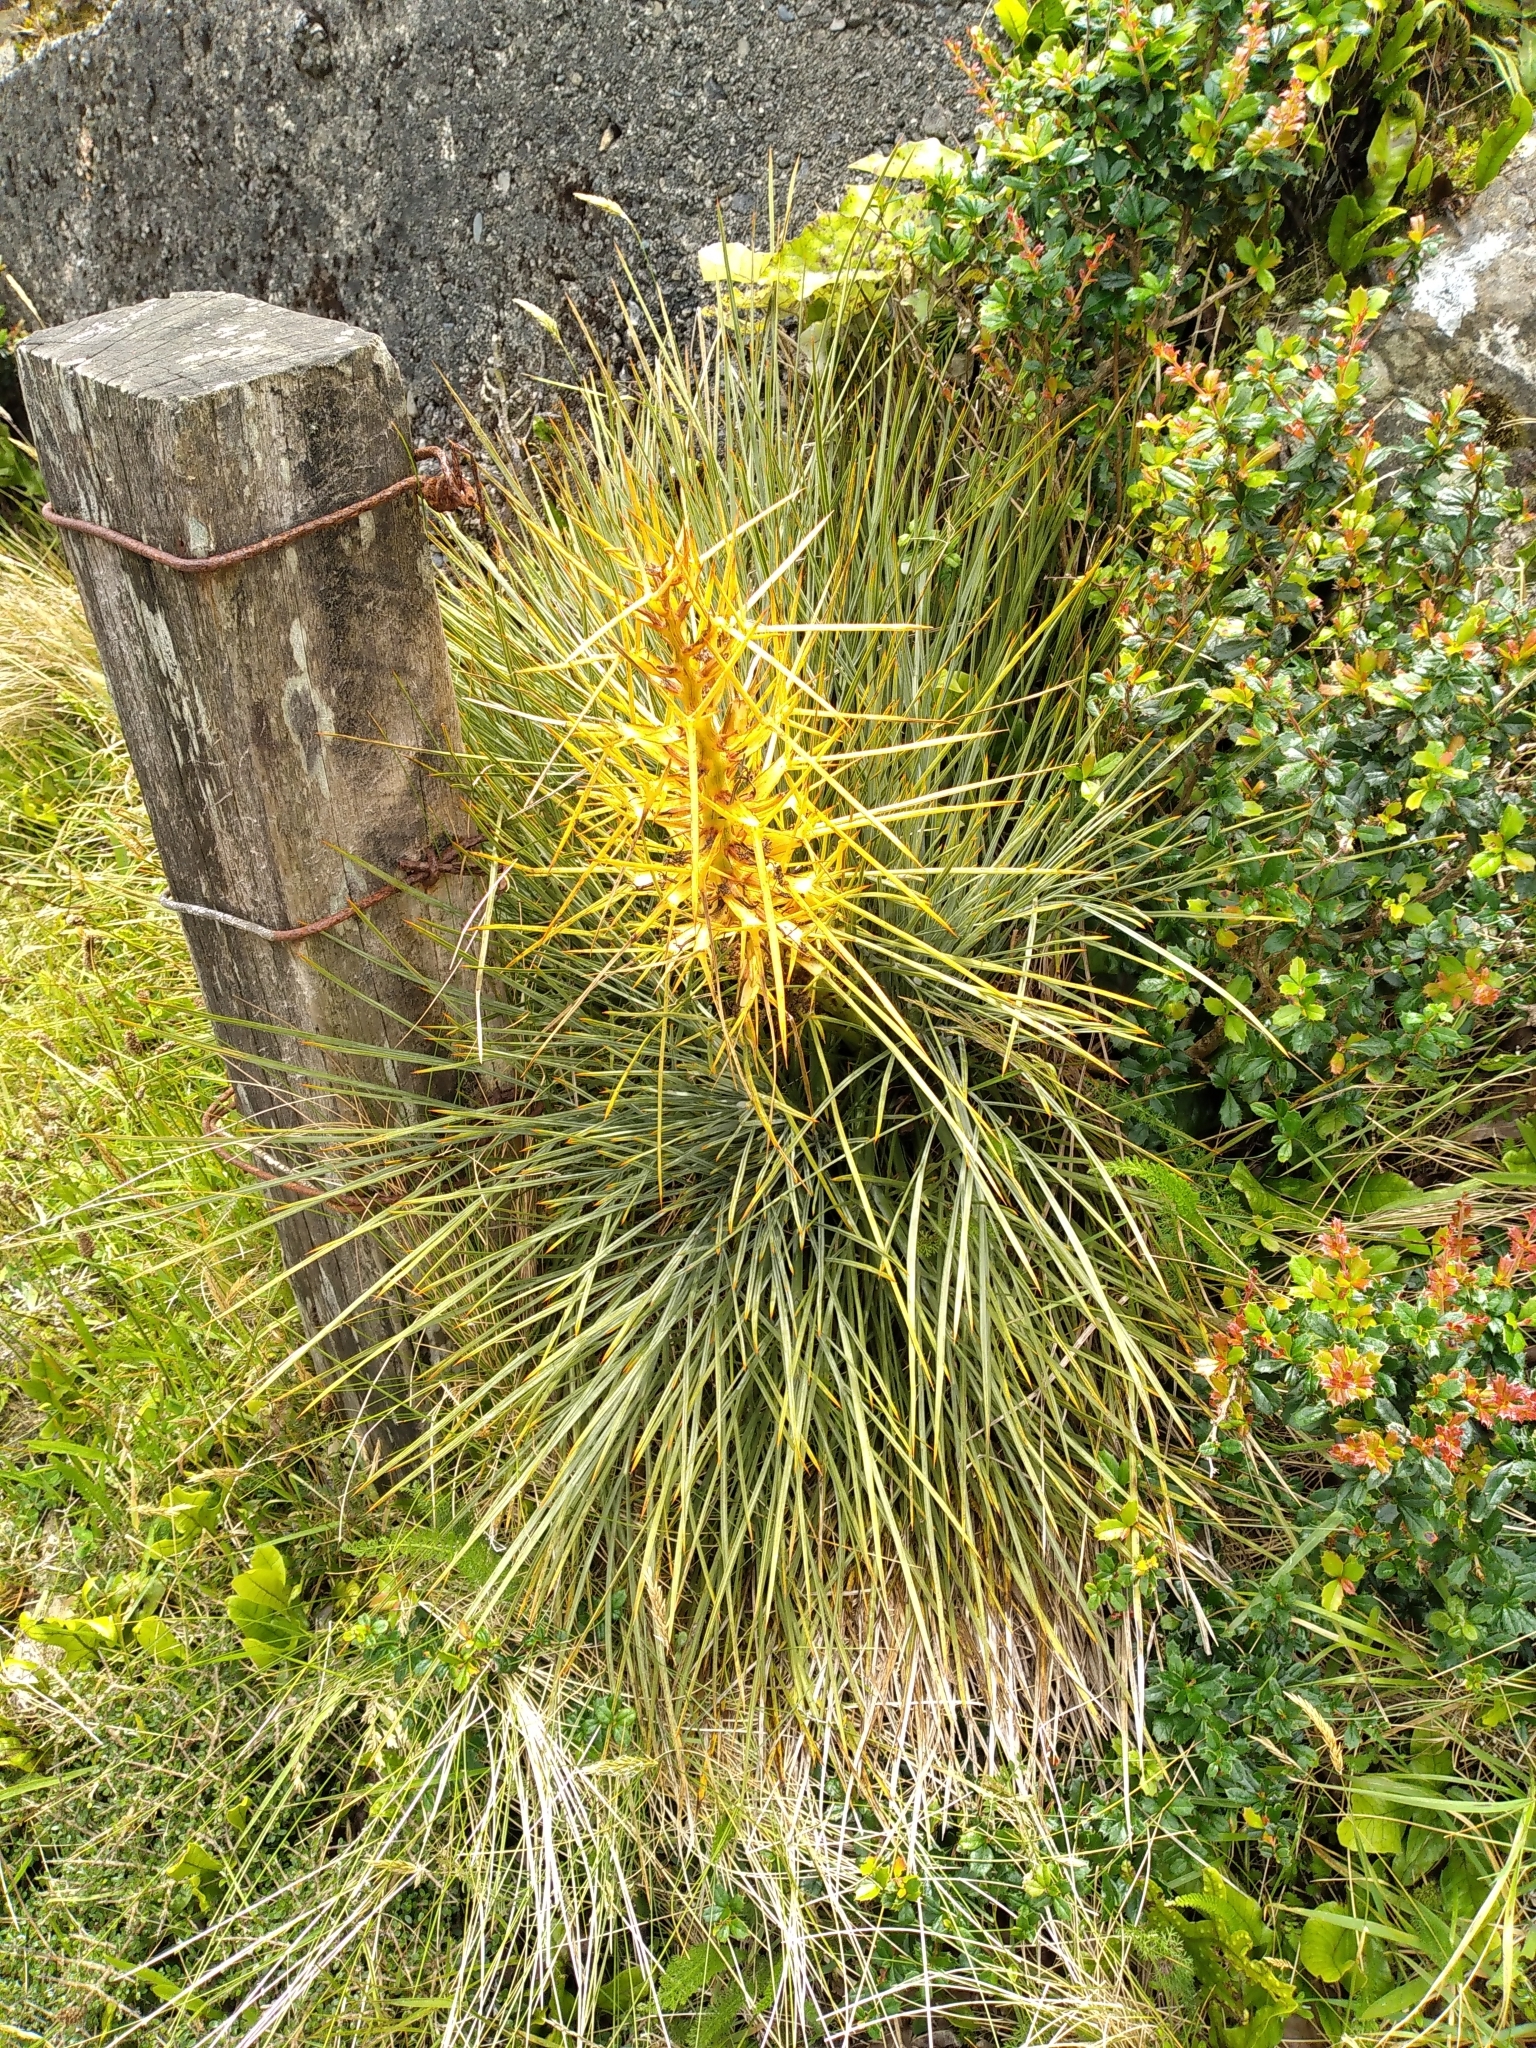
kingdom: Plantae
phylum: Tracheophyta
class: Magnoliopsida
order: Apiales
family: Apiaceae
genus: Aciphylla
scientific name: Aciphylla squarrosa
